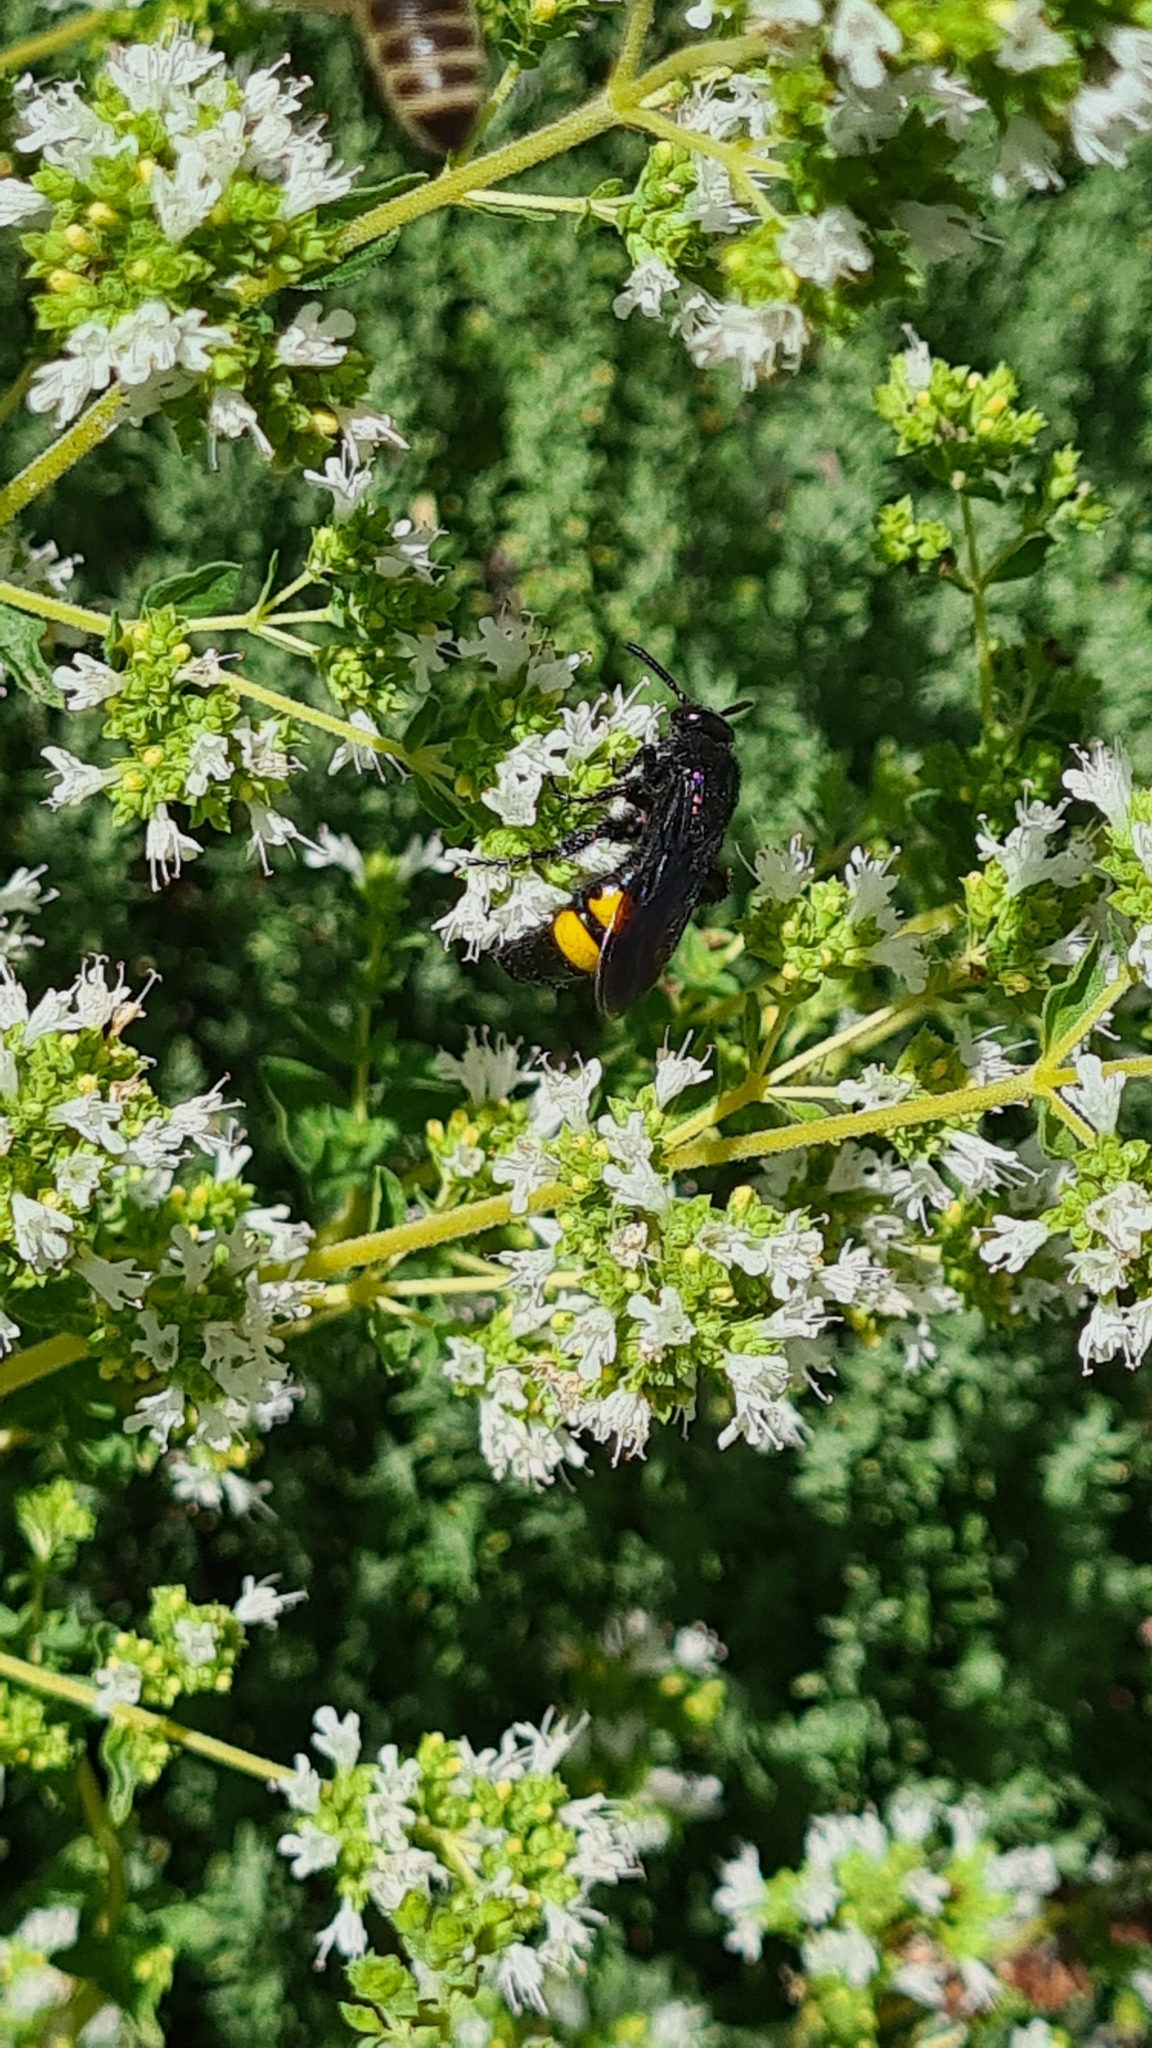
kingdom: Animalia
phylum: Arthropoda
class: Insecta
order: Hymenoptera
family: Scoliidae
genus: Scolia
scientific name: Scolia hirta
